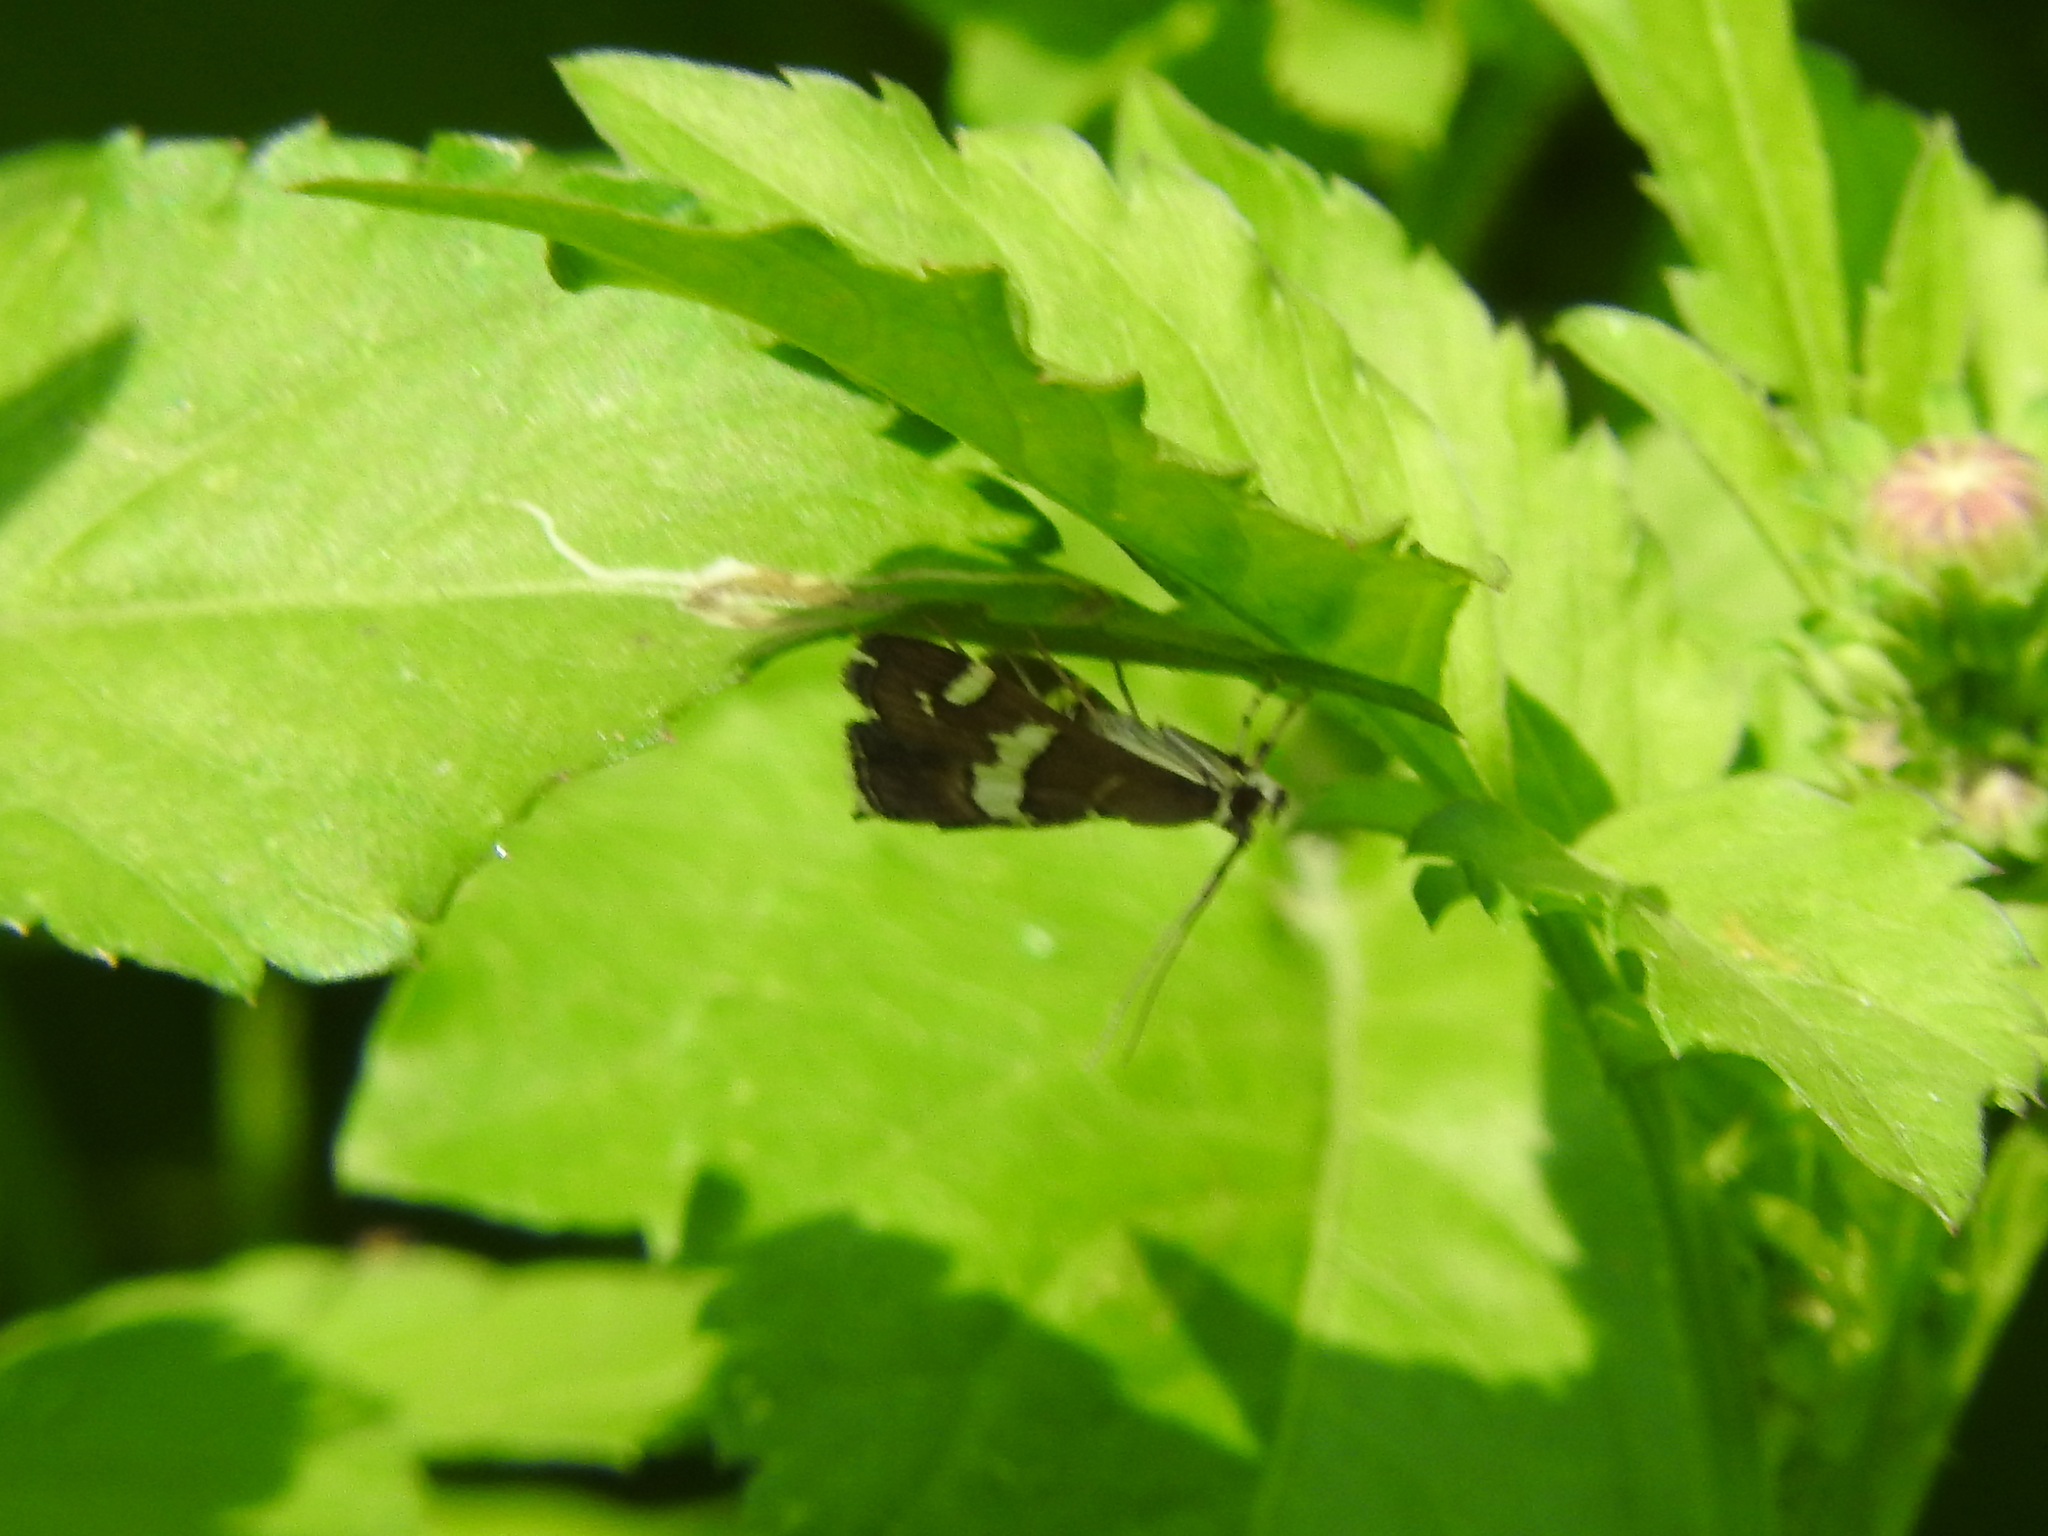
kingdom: Animalia
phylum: Arthropoda
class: Insecta
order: Lepidoptera
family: Crambidae
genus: Spoladea
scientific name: Spoladea recurvalis
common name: Beet webworm moth
